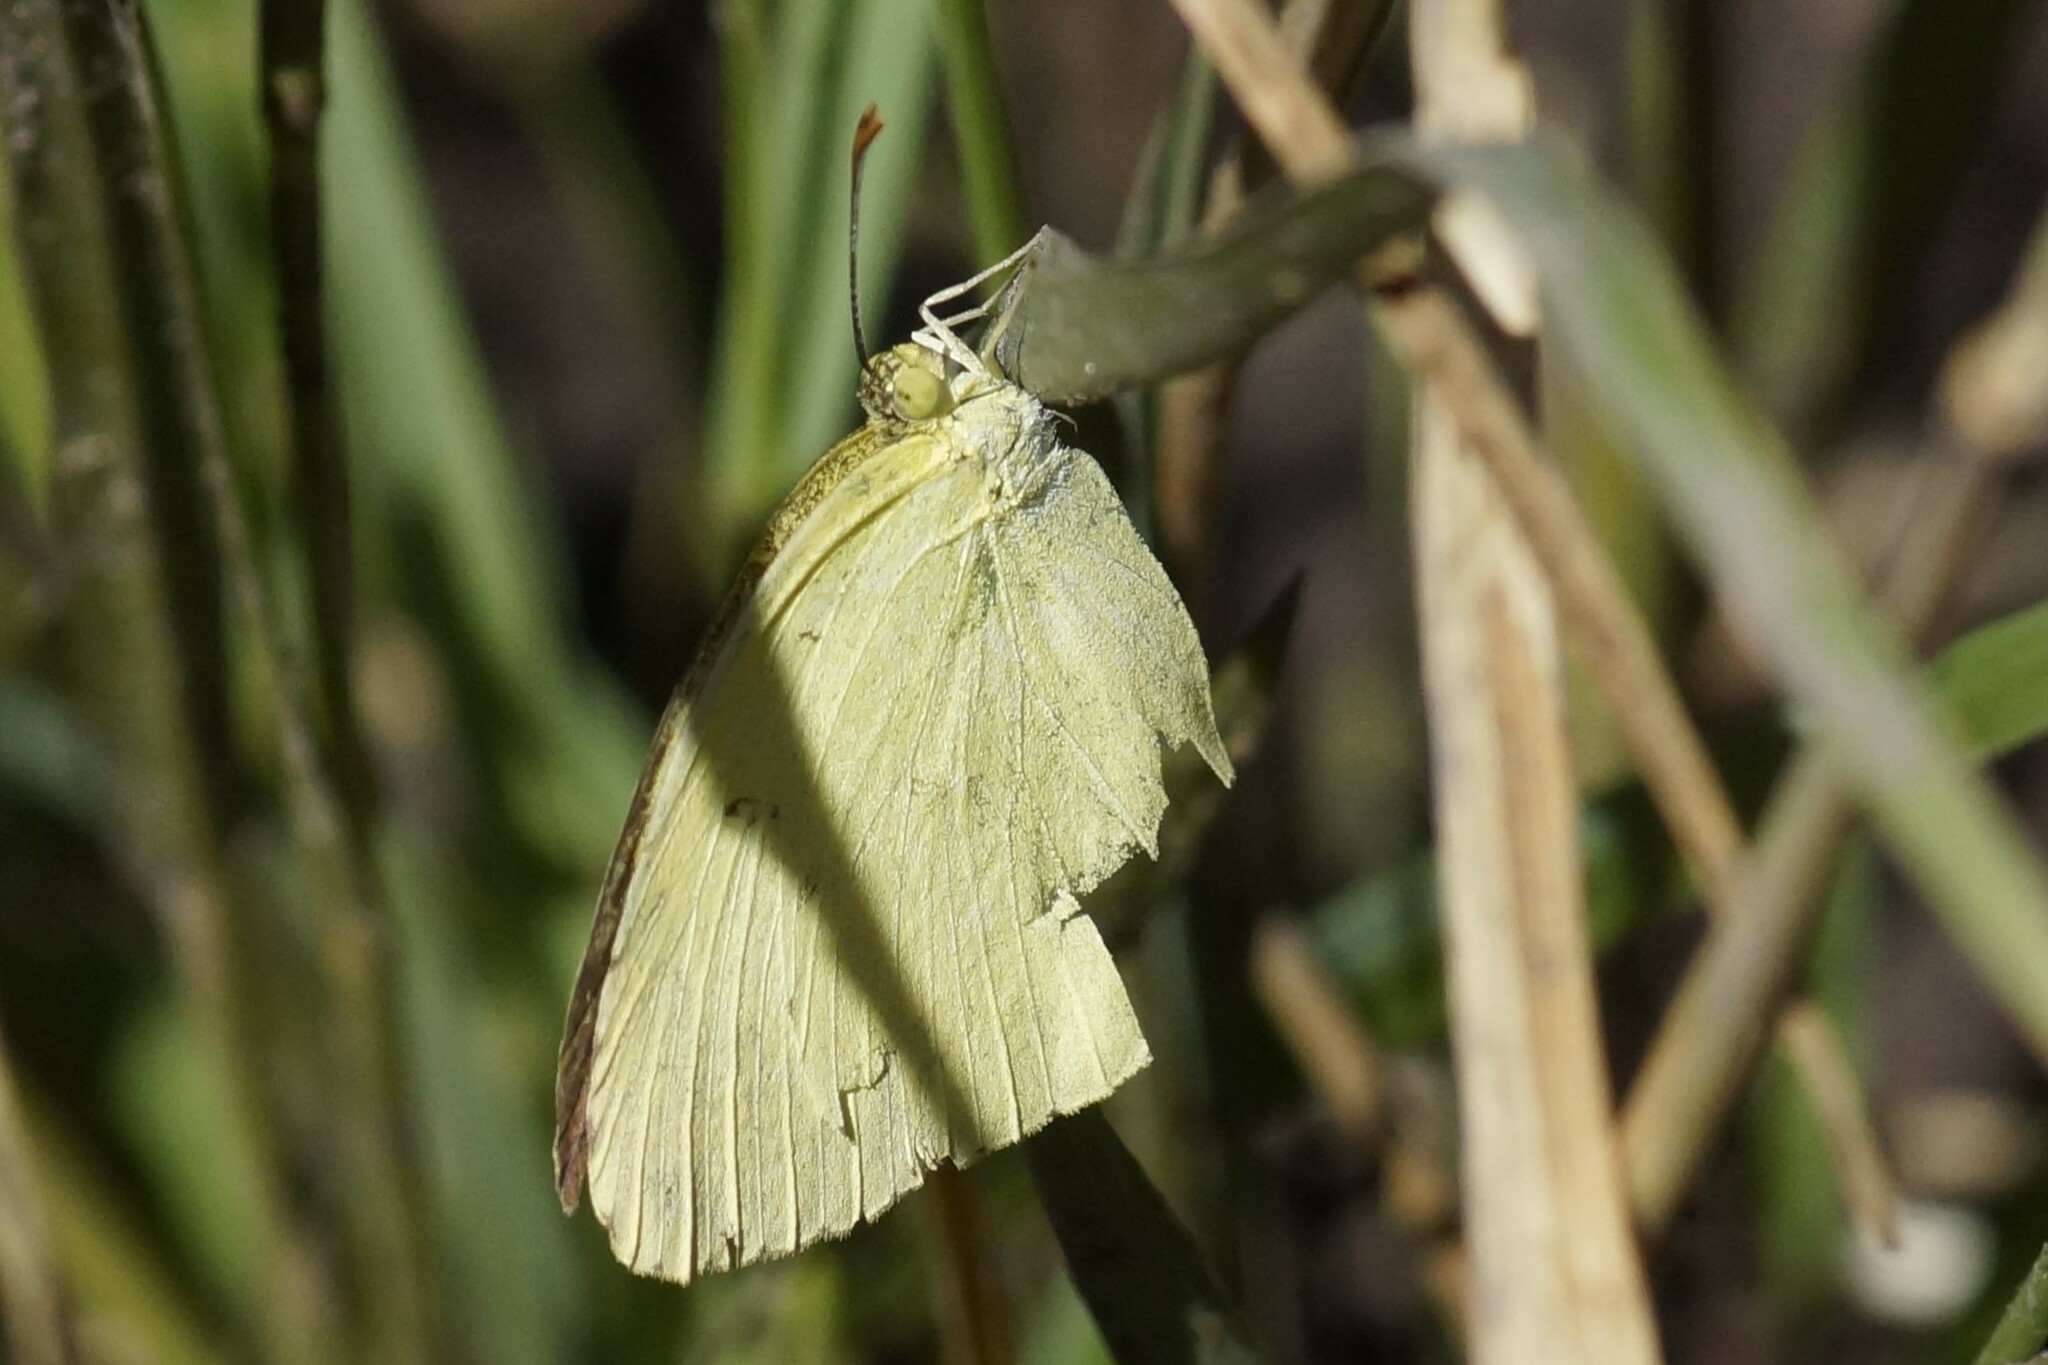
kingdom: Animalia
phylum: Arthropoda
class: Insecta
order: Lepidoptera
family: Pieridae
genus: Eurema
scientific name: Eurema hecabe
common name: Pale grass yellow
